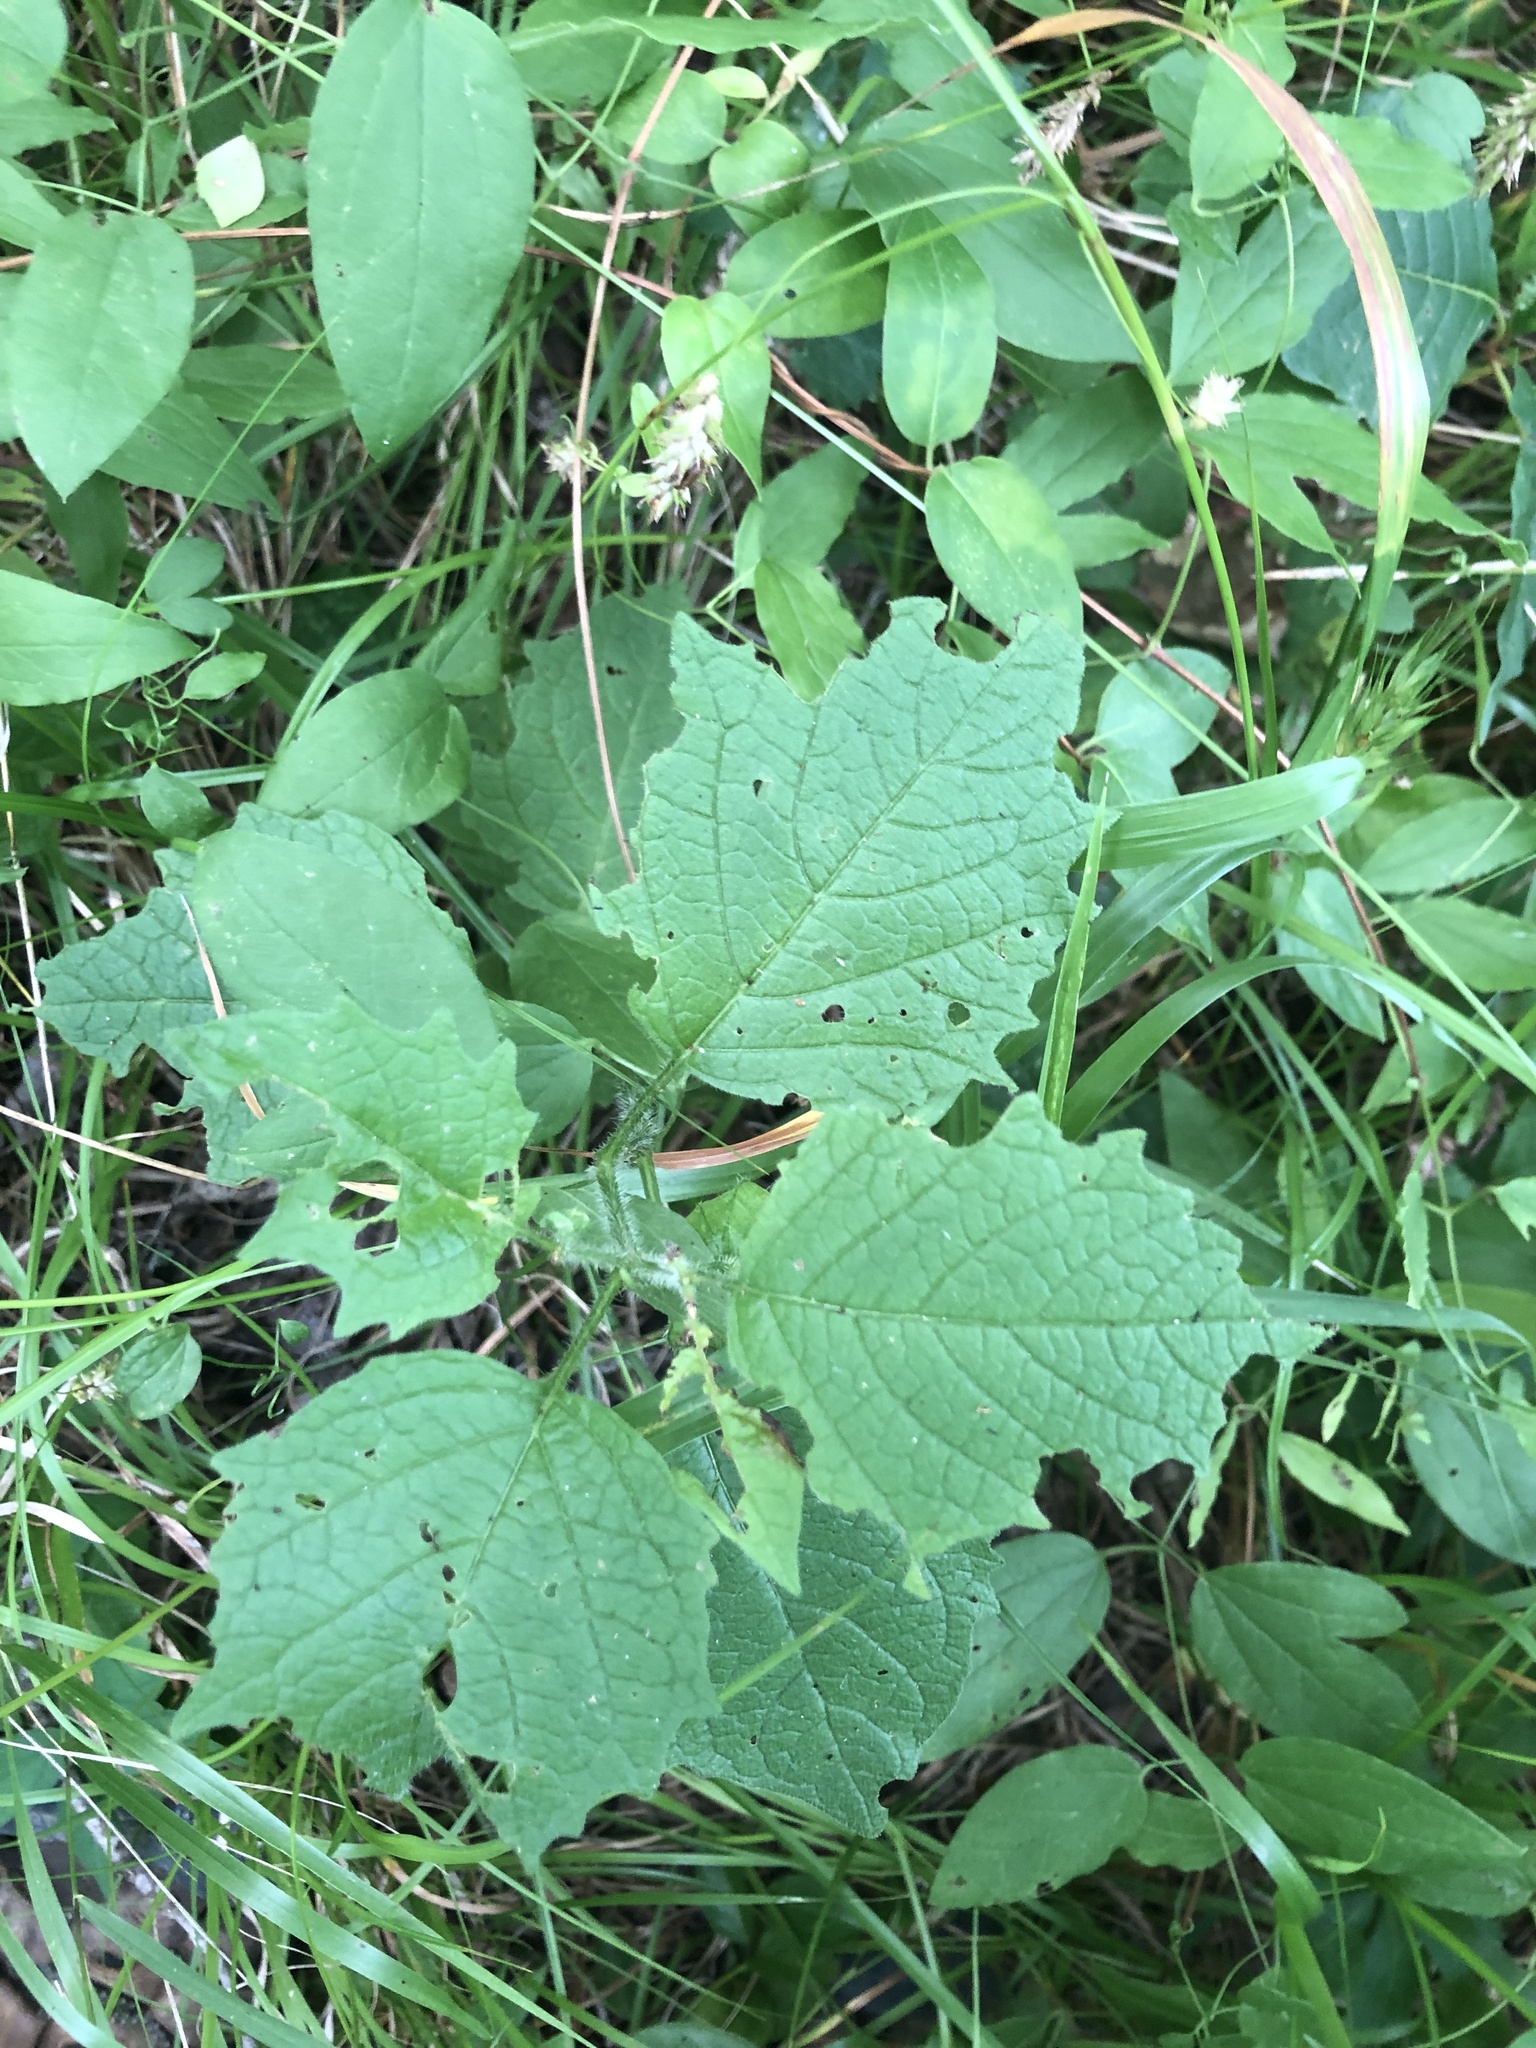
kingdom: Plantae
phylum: Tracheophyta
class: Magnoliopsida
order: Solanales
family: Solanaceae
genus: Physalis
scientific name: Physalis heterophylla
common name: Clammy ground-cherry
